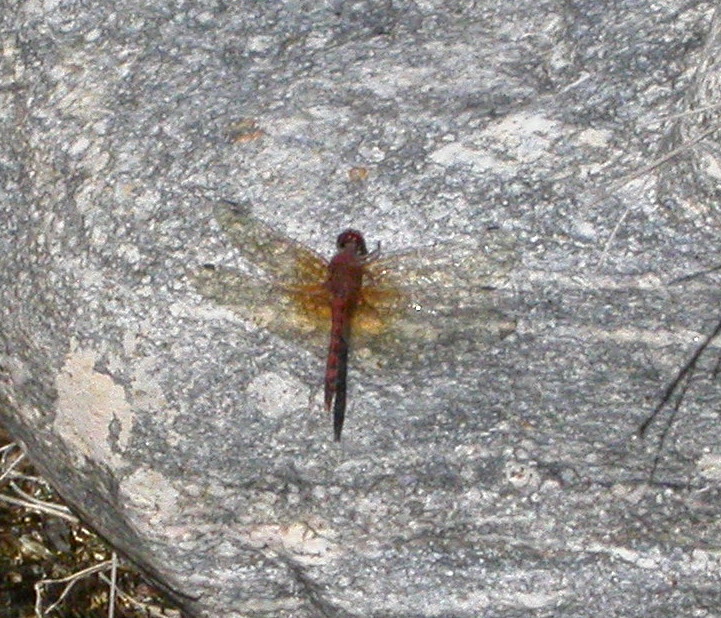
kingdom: Animalia
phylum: Arthropoda
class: Insecta
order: Odonata
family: Libellulidae
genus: Paltothemis
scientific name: Paltothemis lineatipes
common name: Red rock skimmer
